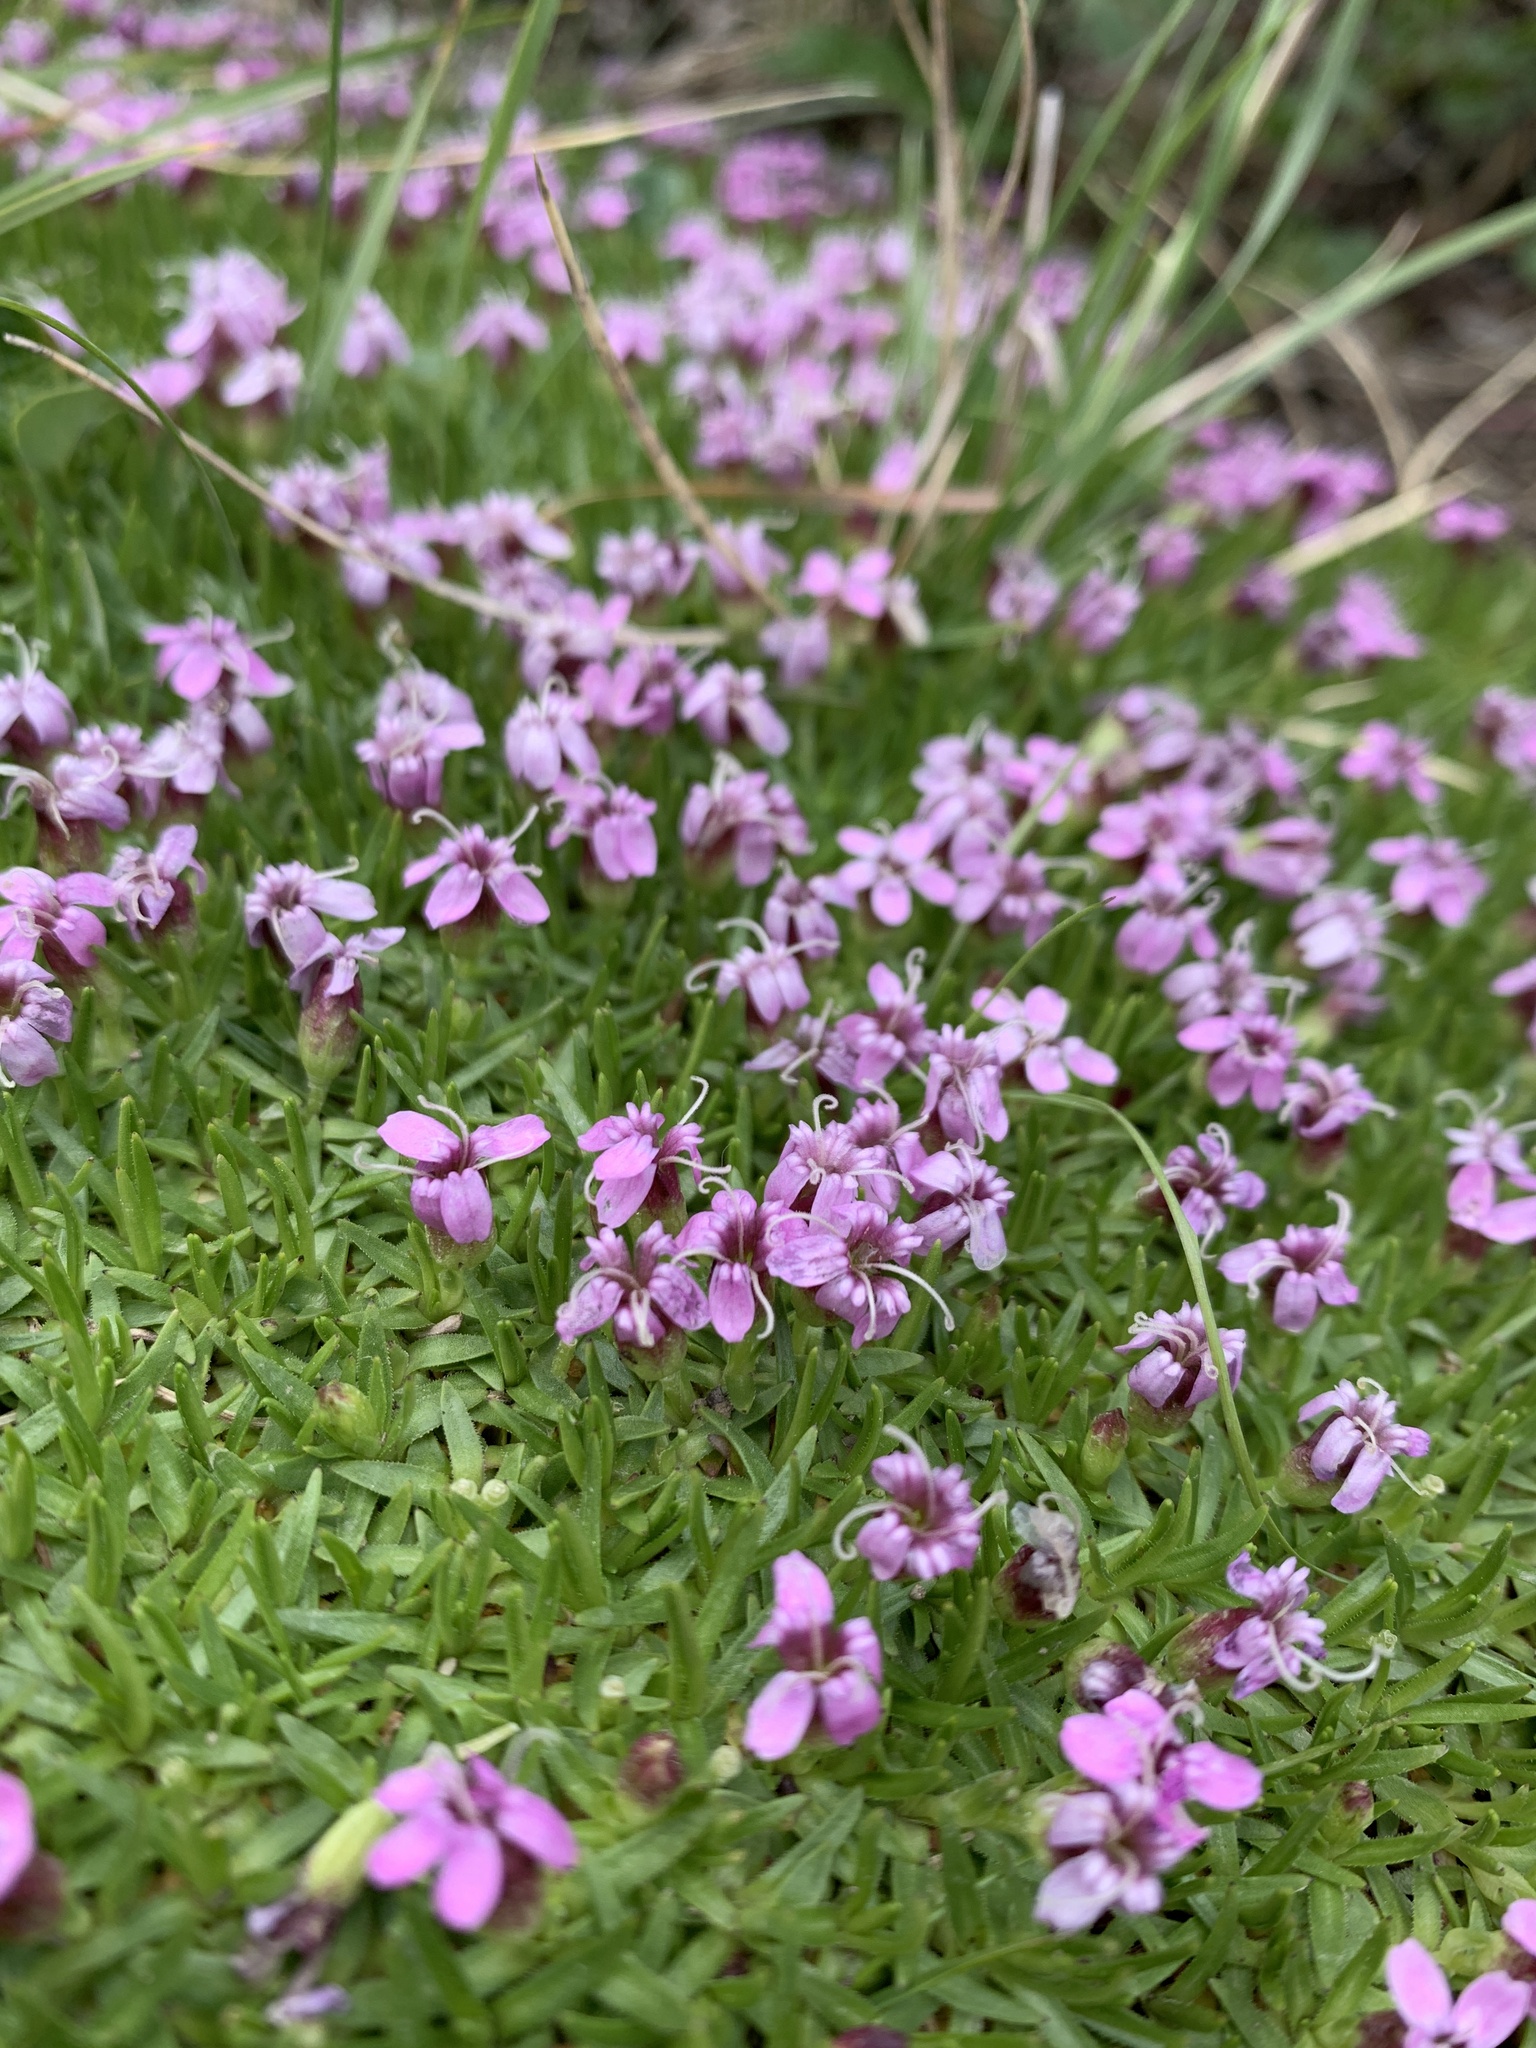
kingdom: Plantae
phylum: Tracheophyta
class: Magnoliopsida
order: Caryophyllales
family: Caryophyllaceae
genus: Silene
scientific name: Silene acaulis
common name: Moss campion
